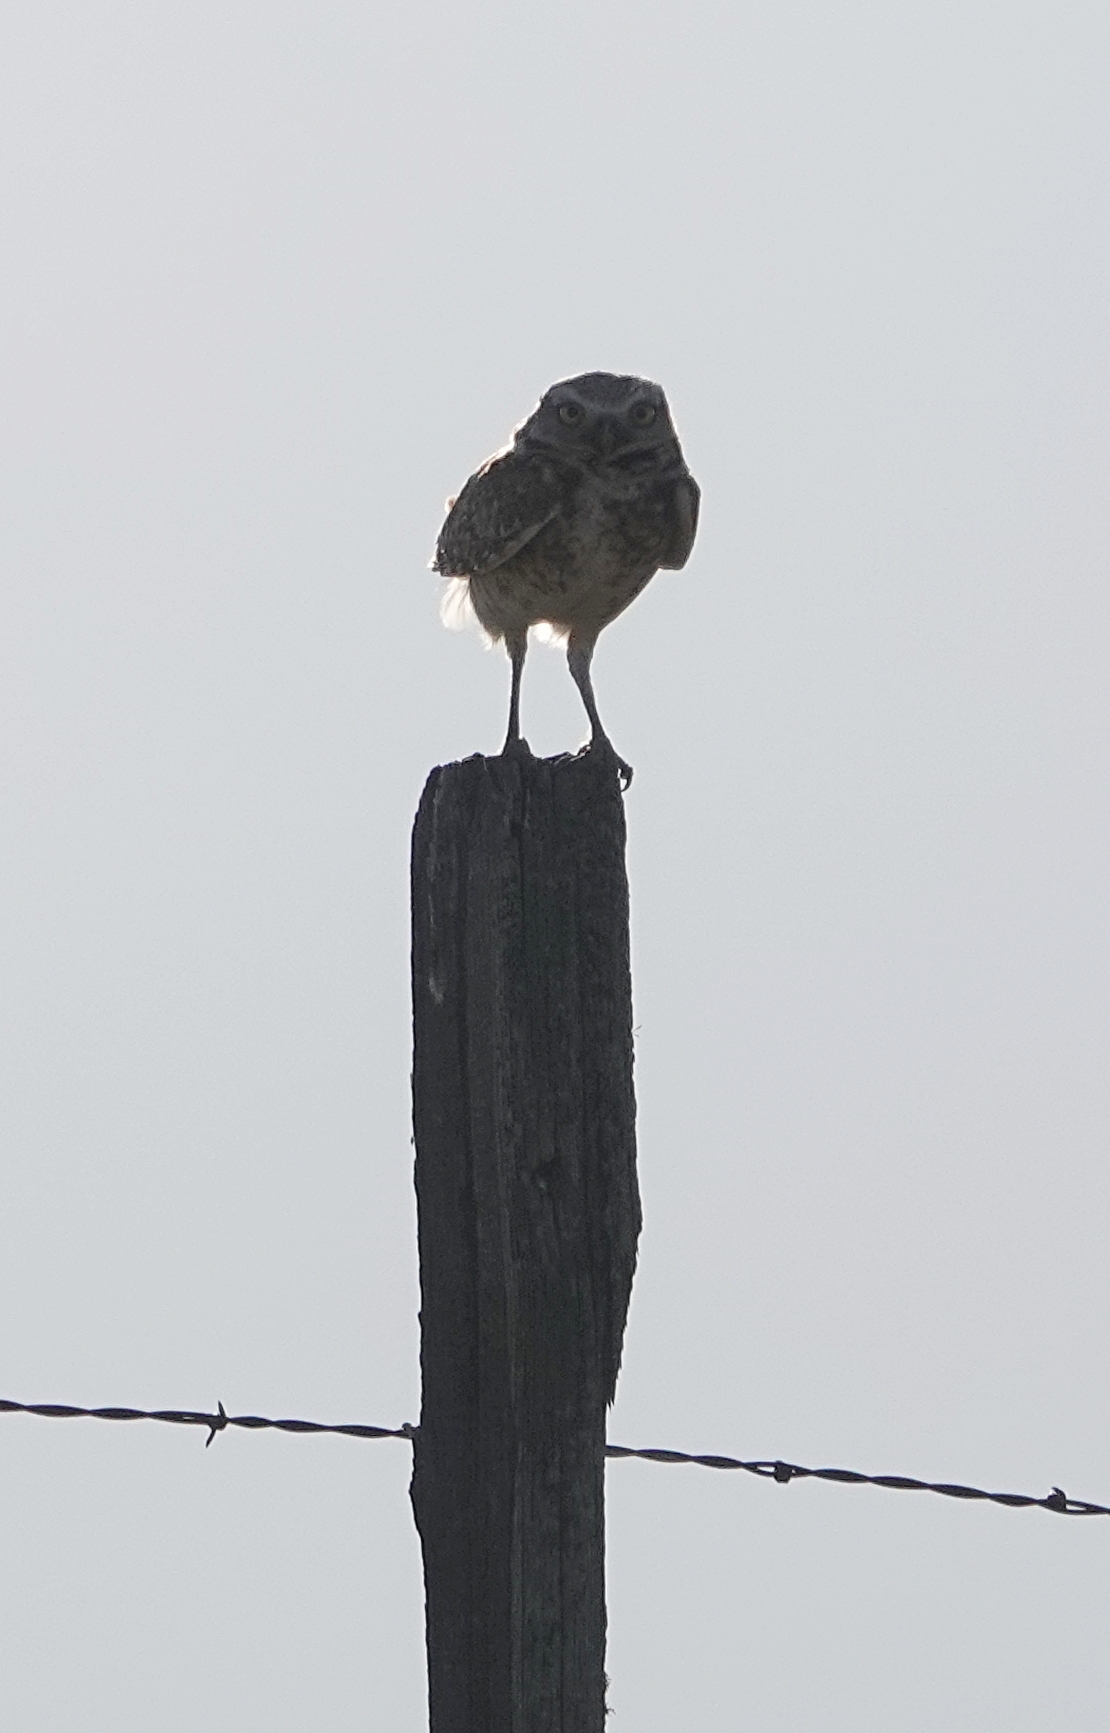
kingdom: Animalia
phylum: Chordata
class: Aves
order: Strigiformes
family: Strigidae
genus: Athene
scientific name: Athene cunicularia
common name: Burrowing owl
